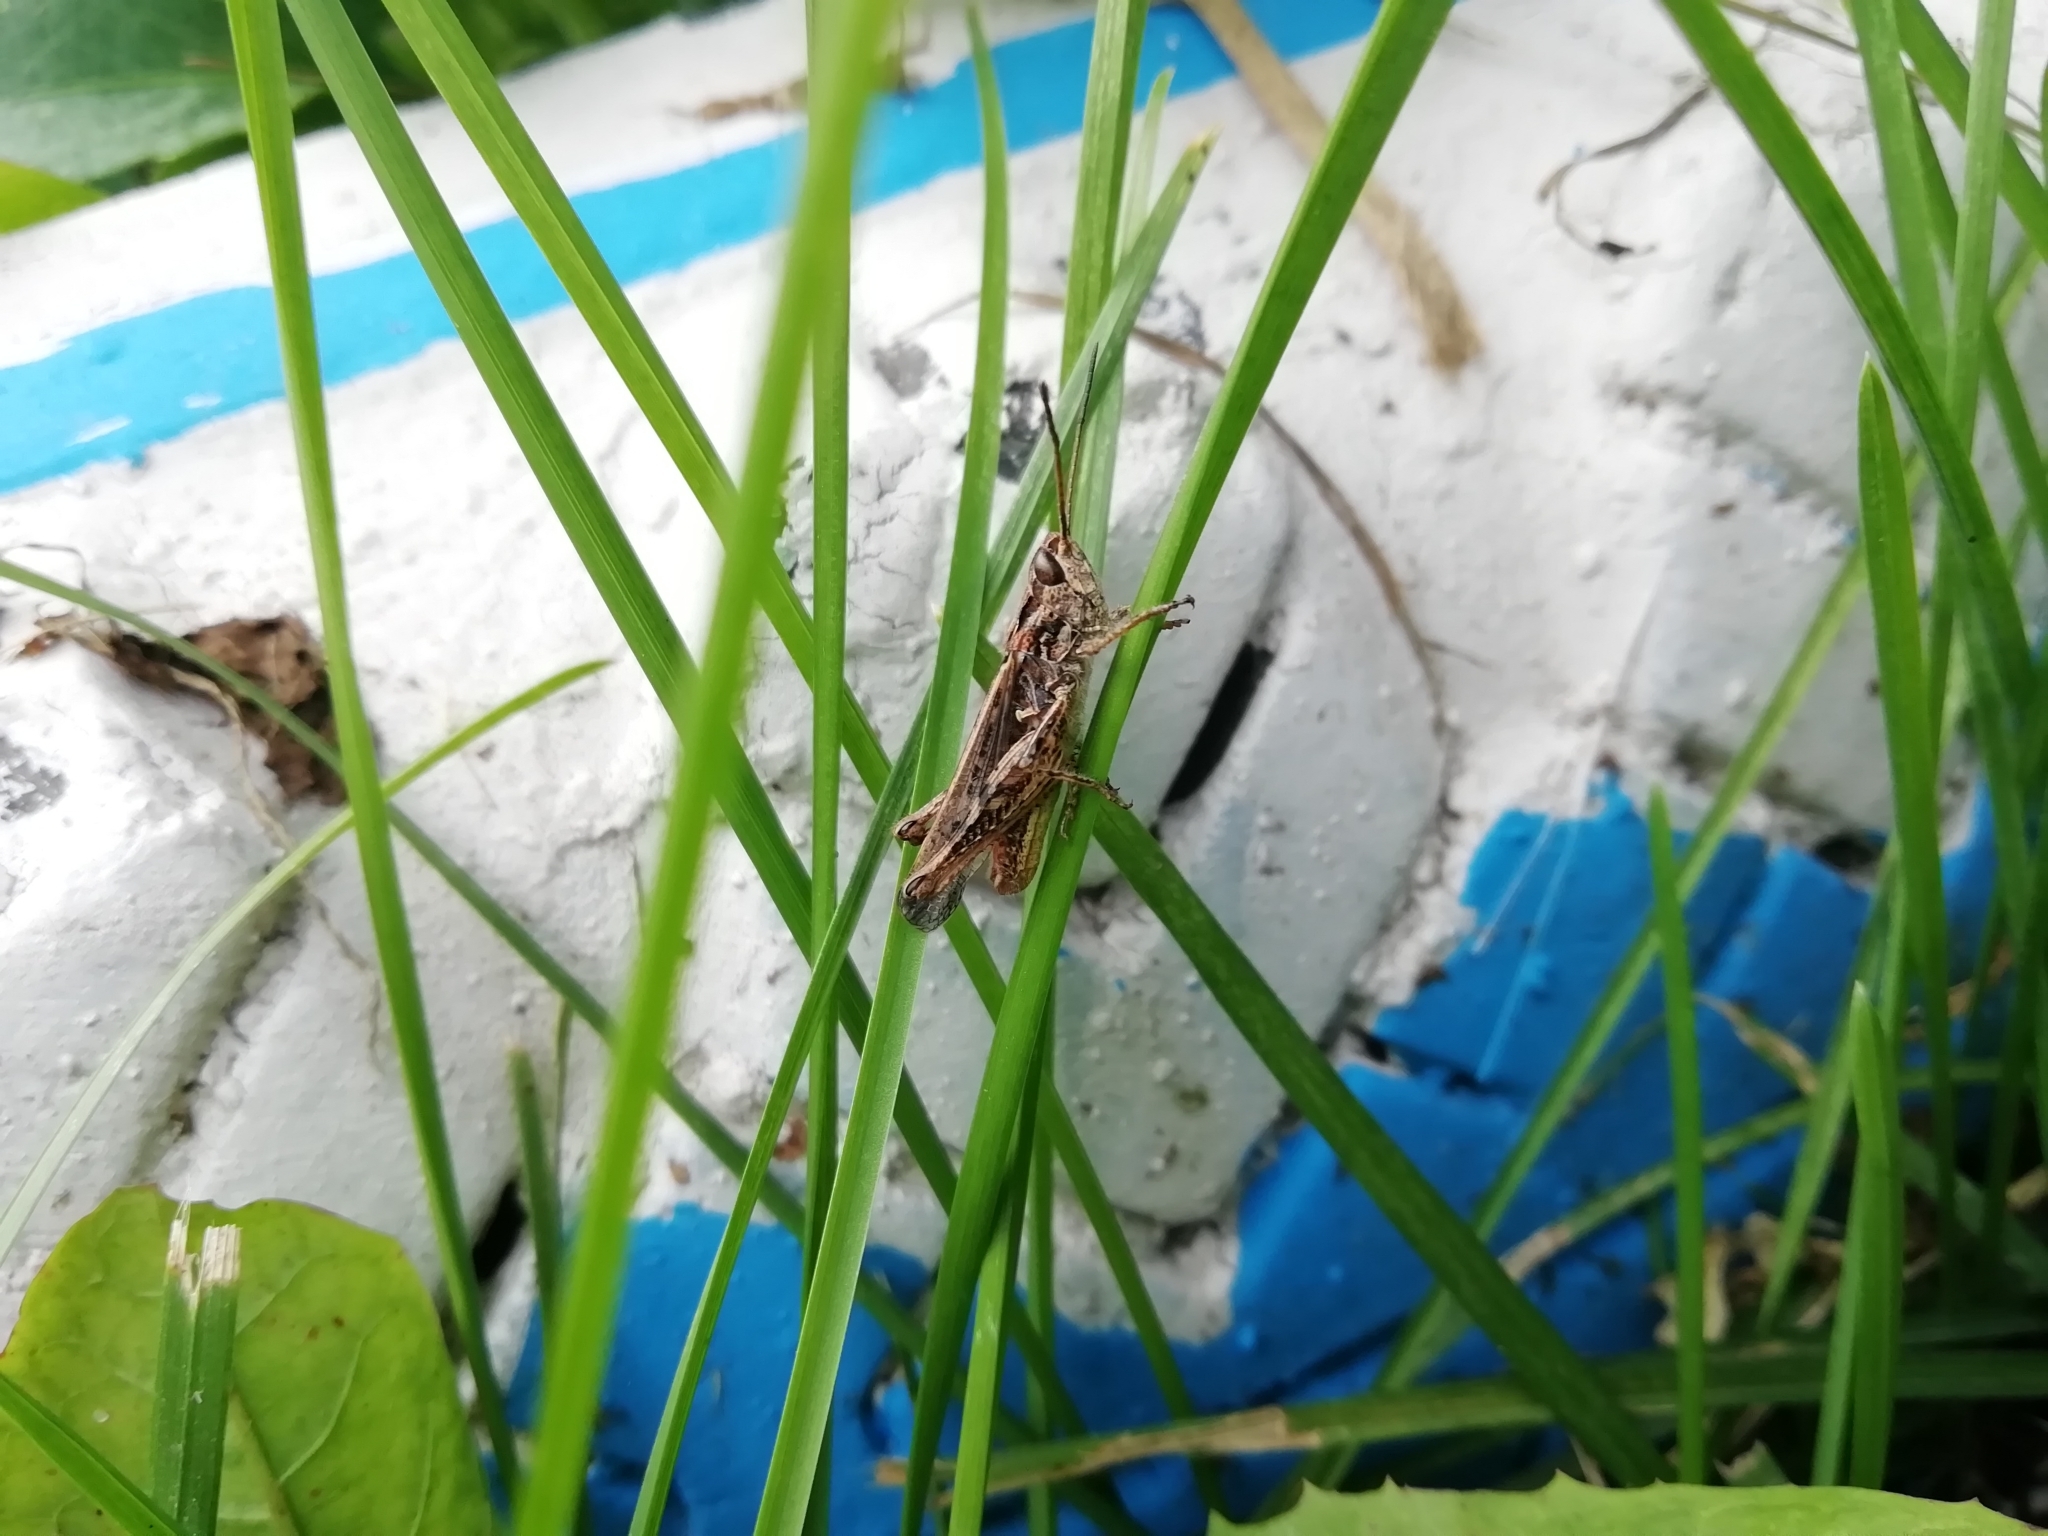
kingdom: Animalia
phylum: Arthropoda
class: Insecta
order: Orthoptera
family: Acrididae
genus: Chorthippus
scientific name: Chorthippus biguttulus
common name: Bow-winged grasshopper
